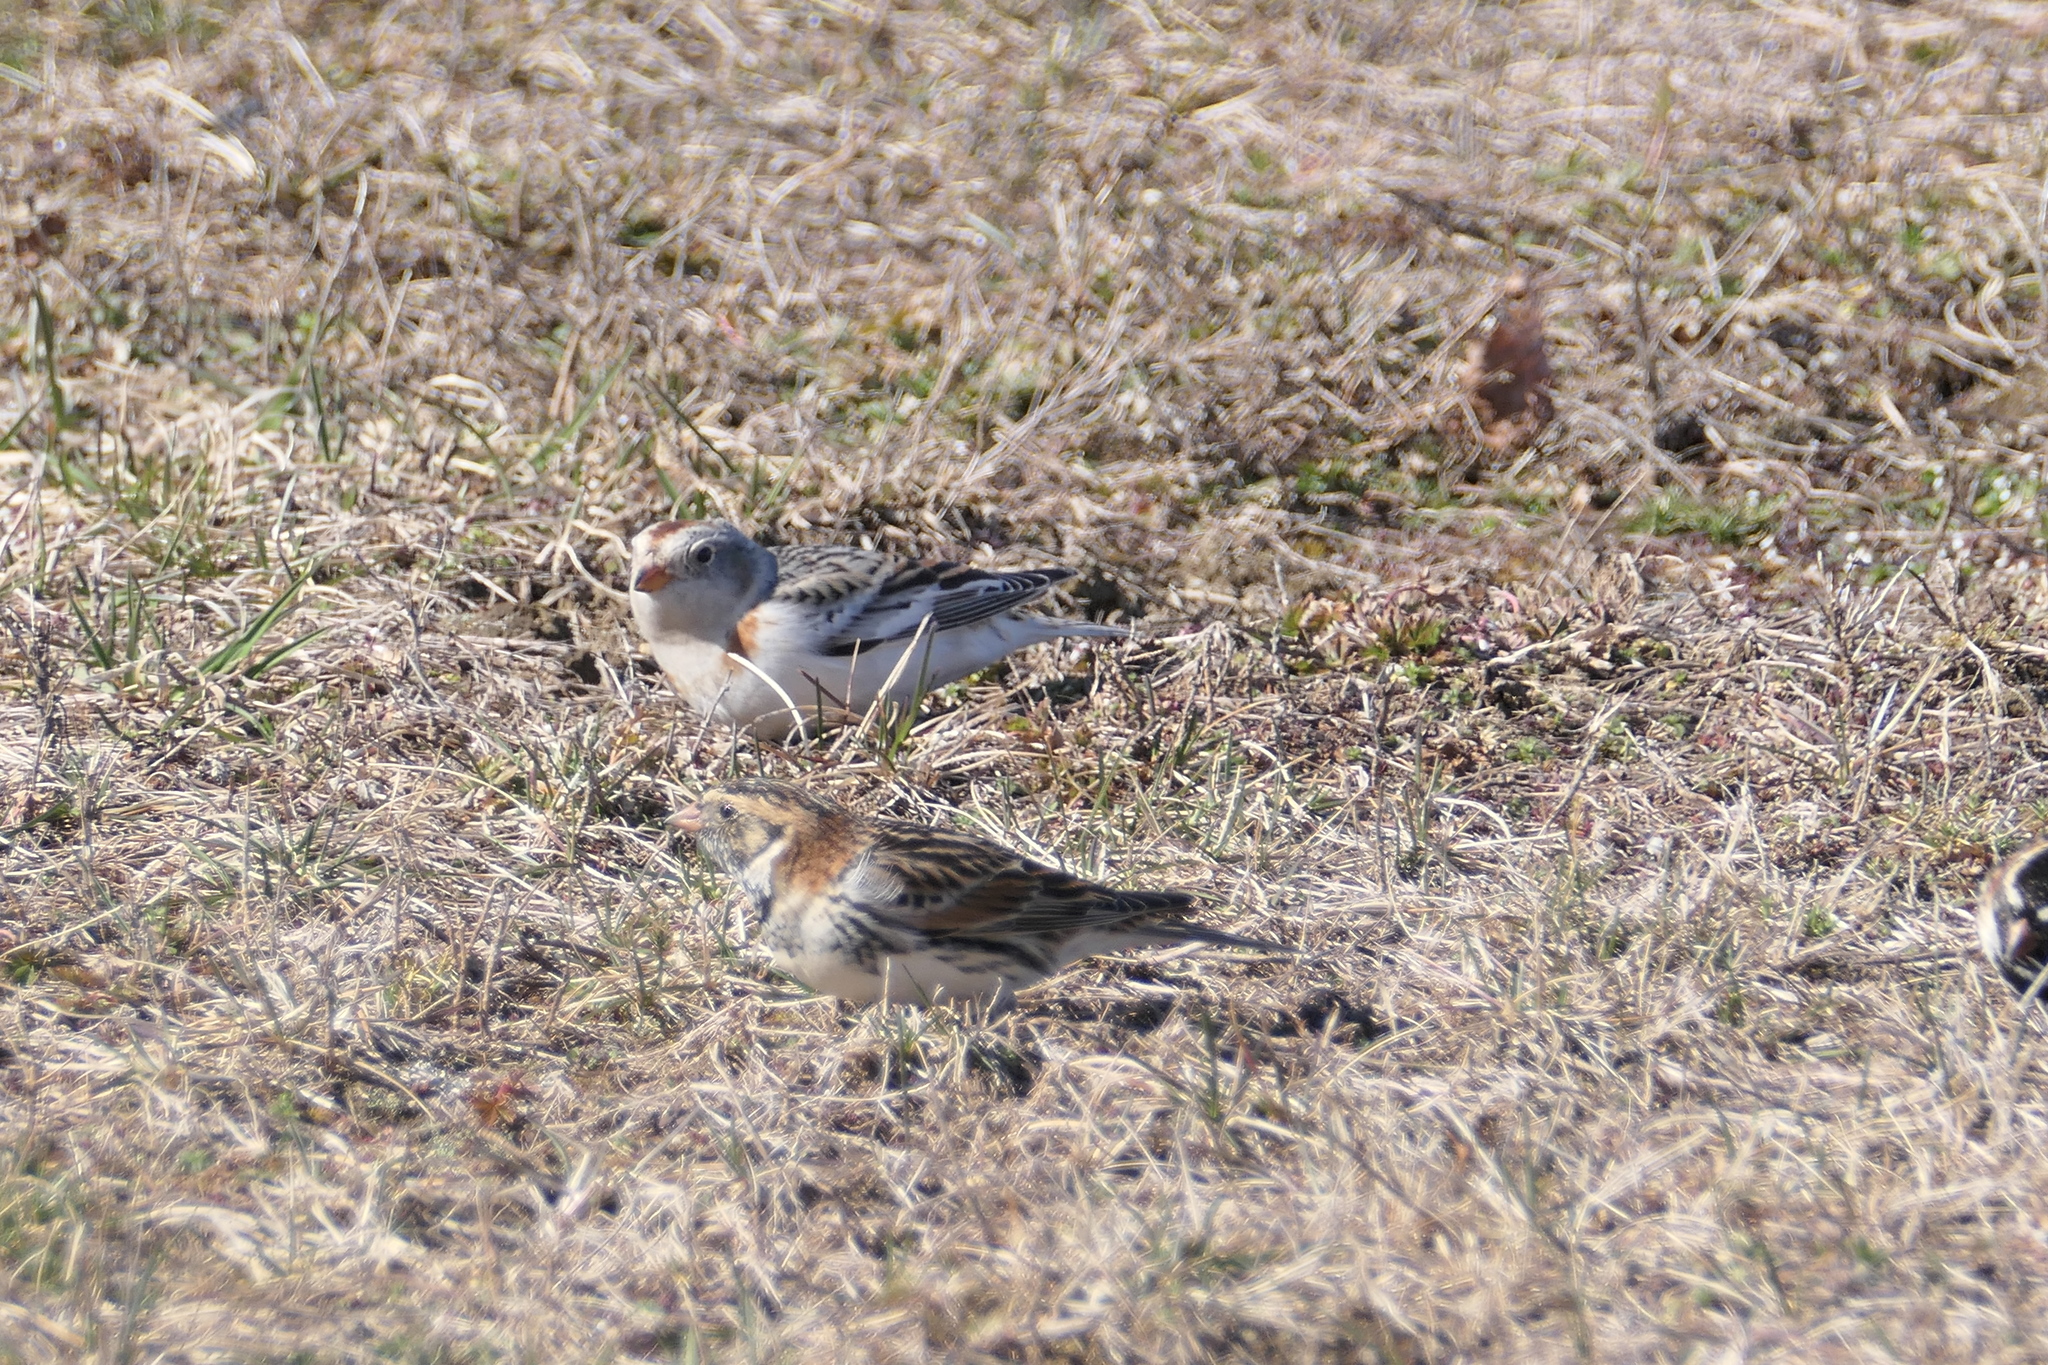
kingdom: Animalia
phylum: Chordata
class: Aves
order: Passeriformes
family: Calcariidae
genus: Plectrophenax
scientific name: Plectrophenax nivalis
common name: Snow bunting
